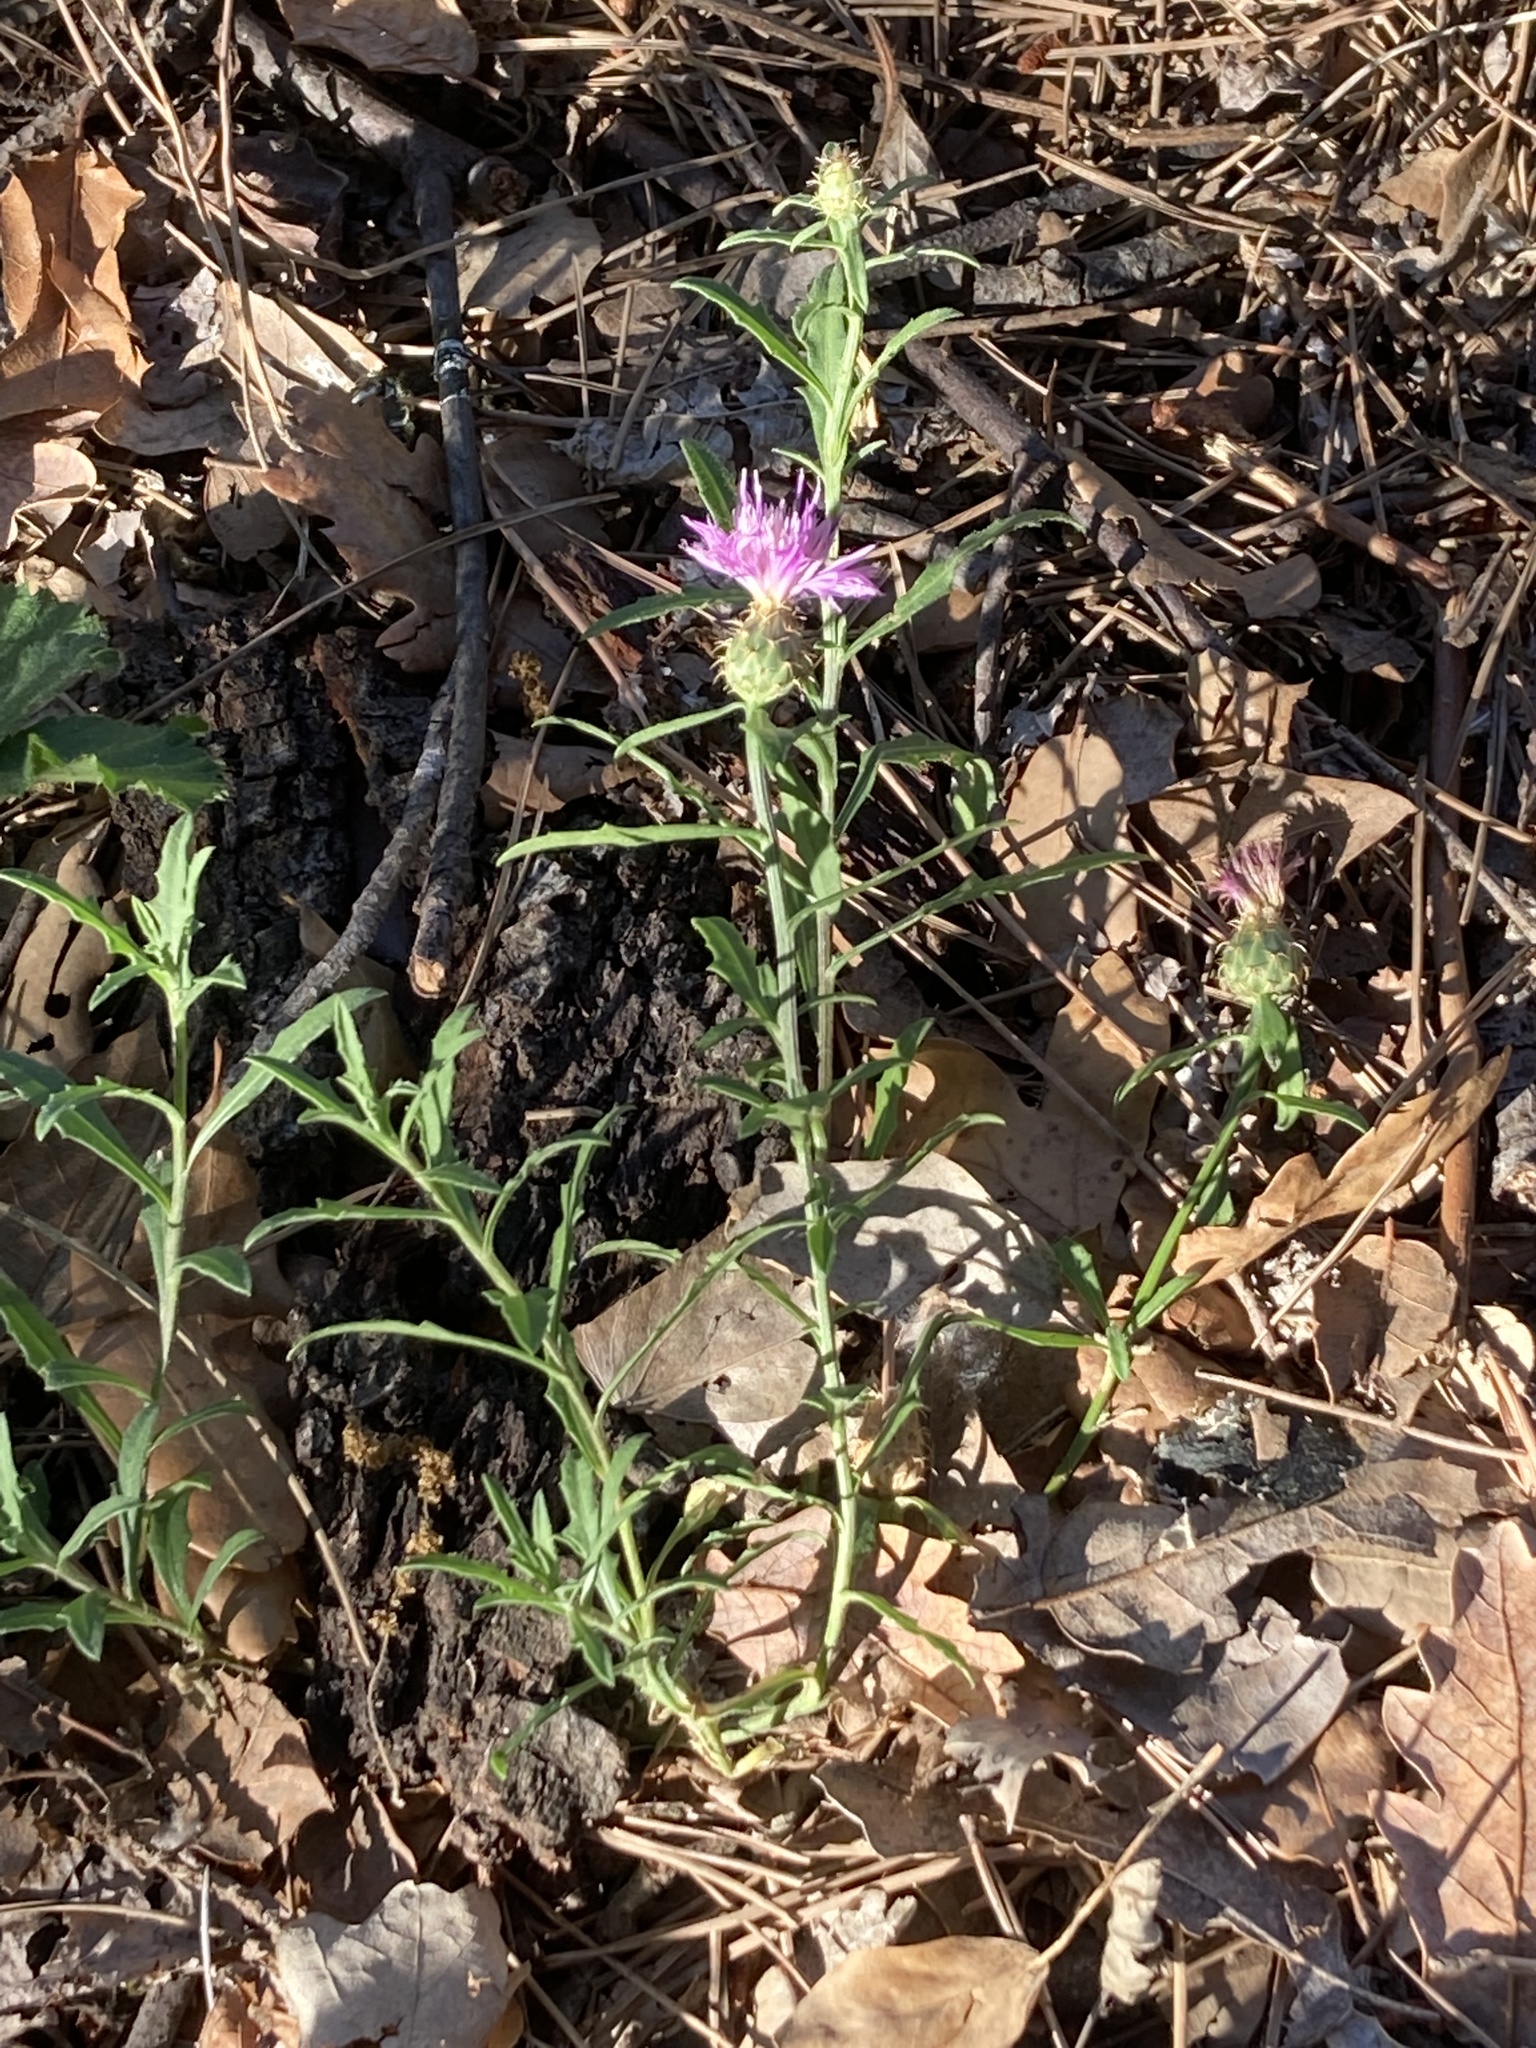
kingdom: Plantae
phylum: Tracheophyta
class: Magnoliopsida
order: Asterales
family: Asteraceae
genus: Centaurea
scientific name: Centaurea aspera
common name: Rough star-thistle
